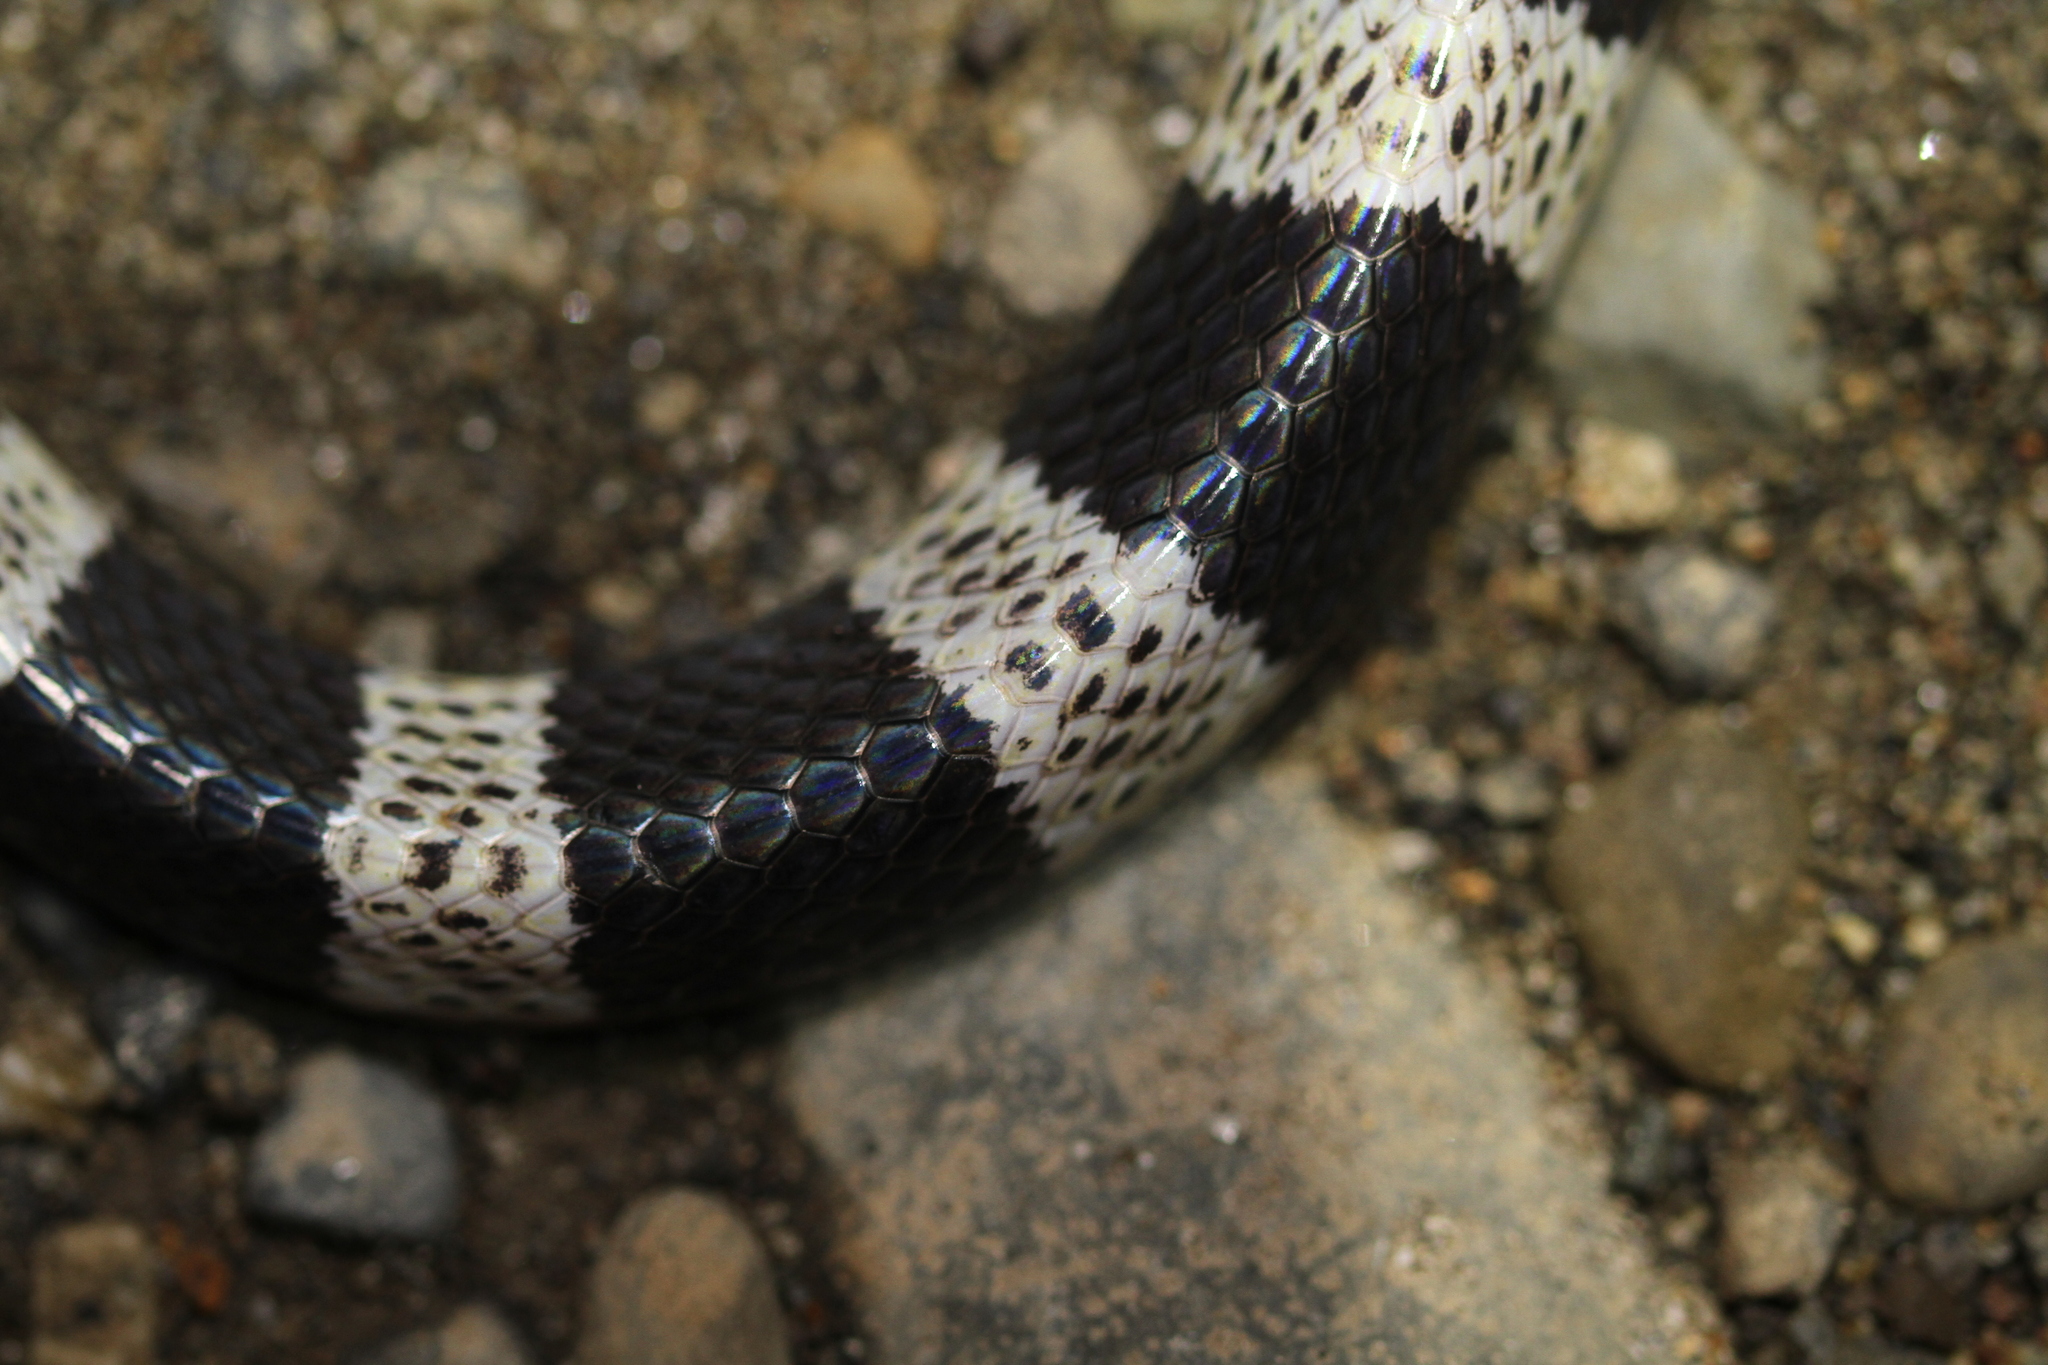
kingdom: Animalia
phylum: Chordata
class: Squamata
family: Elapidae
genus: Bungarus
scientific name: Bungarus candidus
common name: Blue krait/malayan krait
